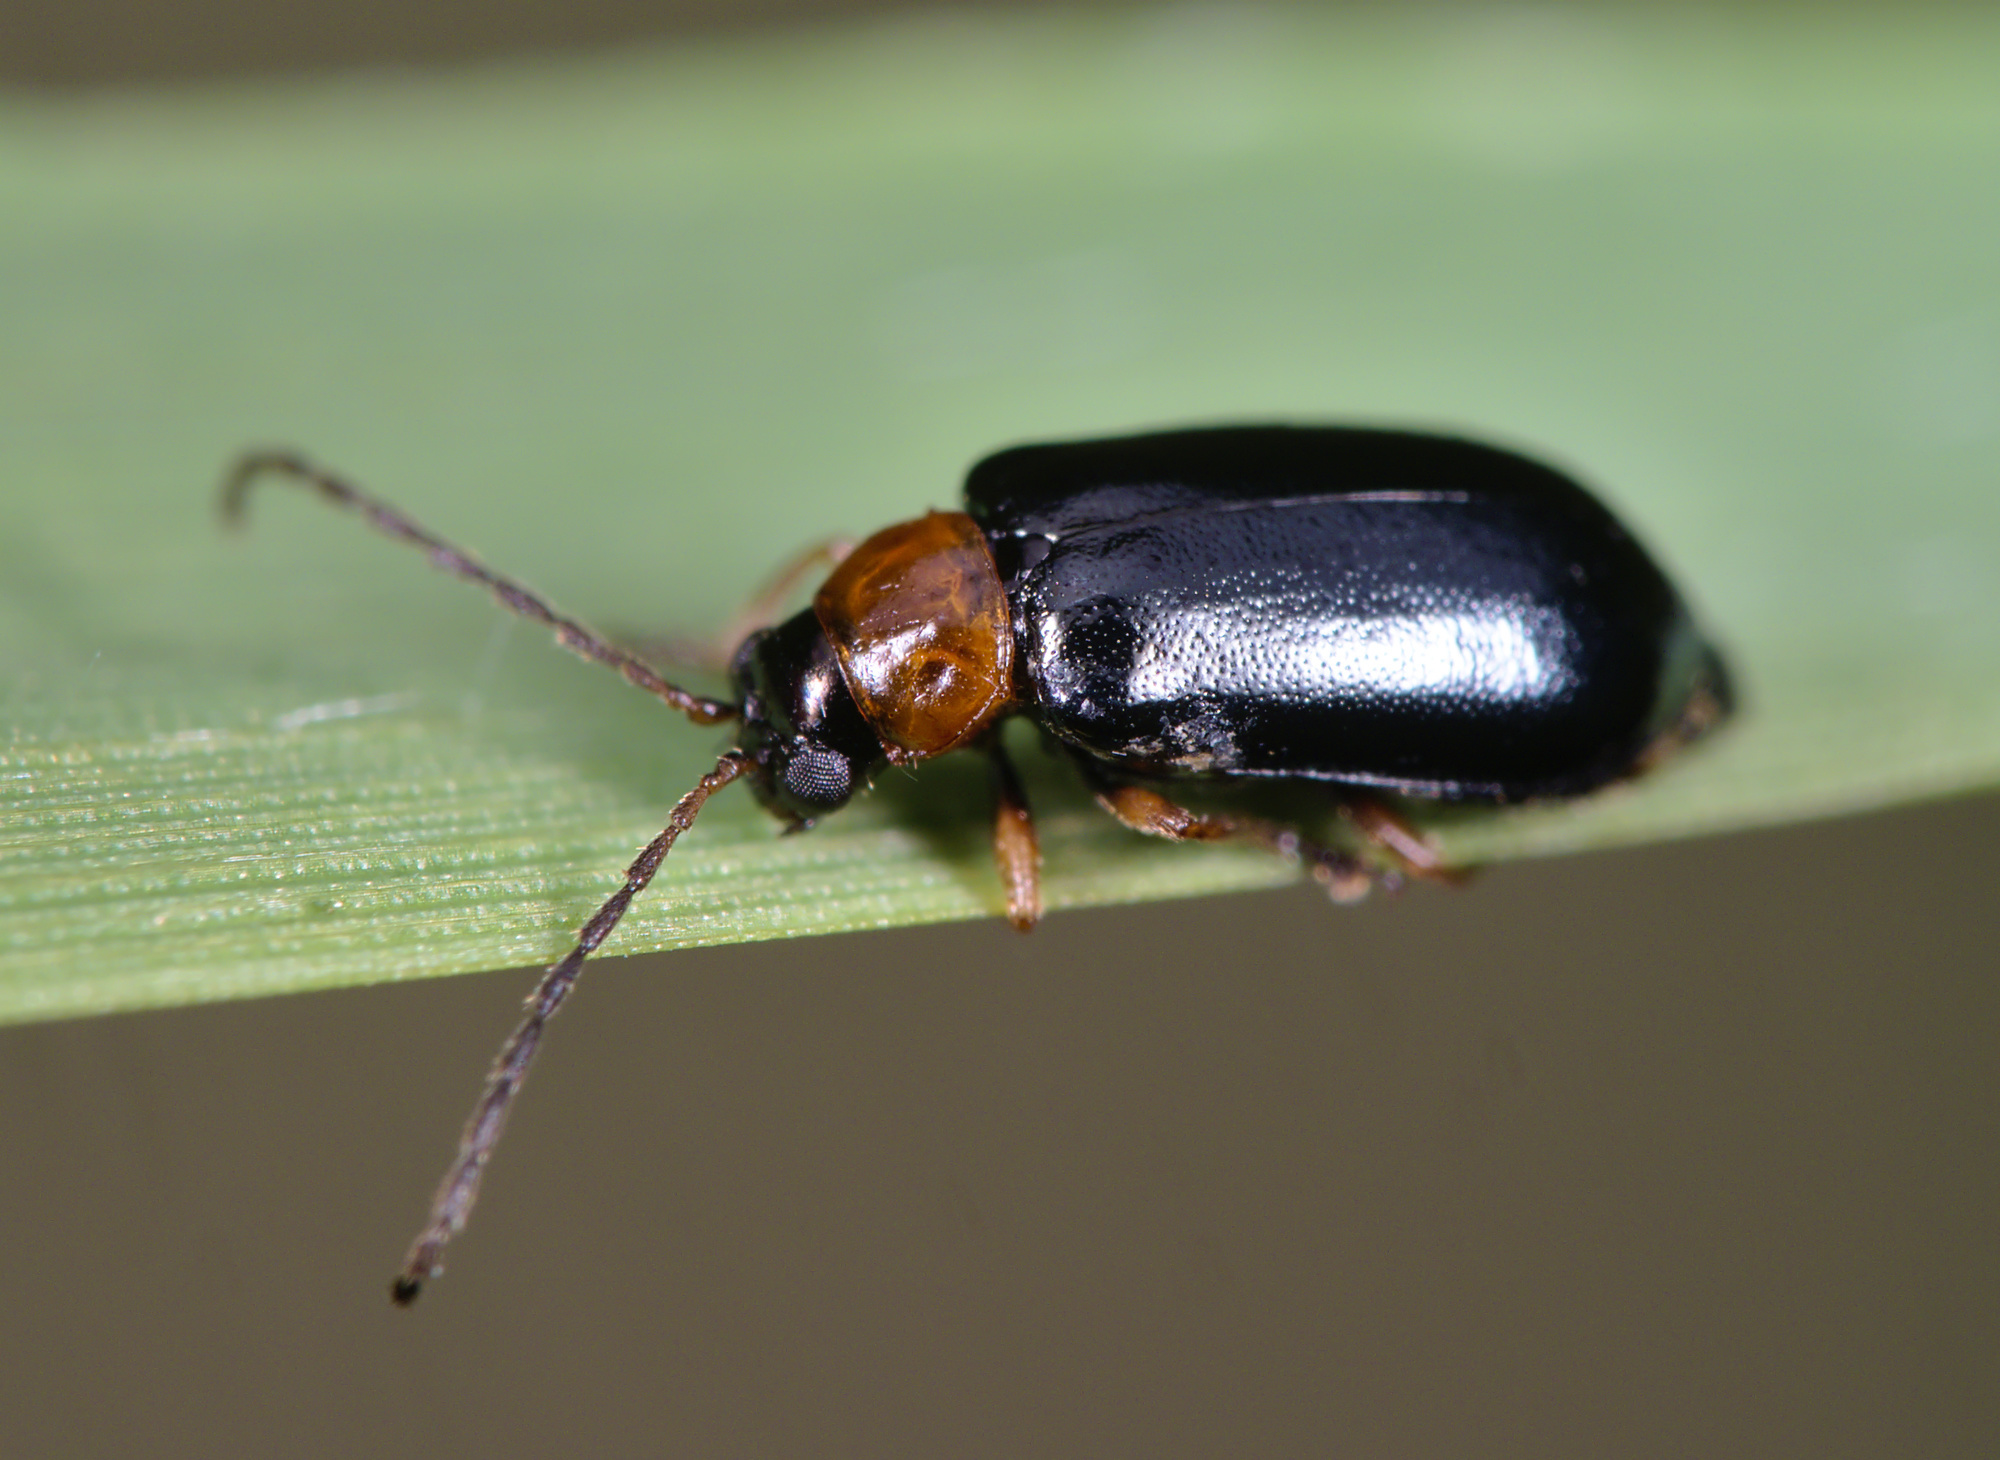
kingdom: Animalia
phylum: Arthropoda
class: Insecta
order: Coleoptera
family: Chrysomelidae
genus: Luperus
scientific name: Luperus flavipes
